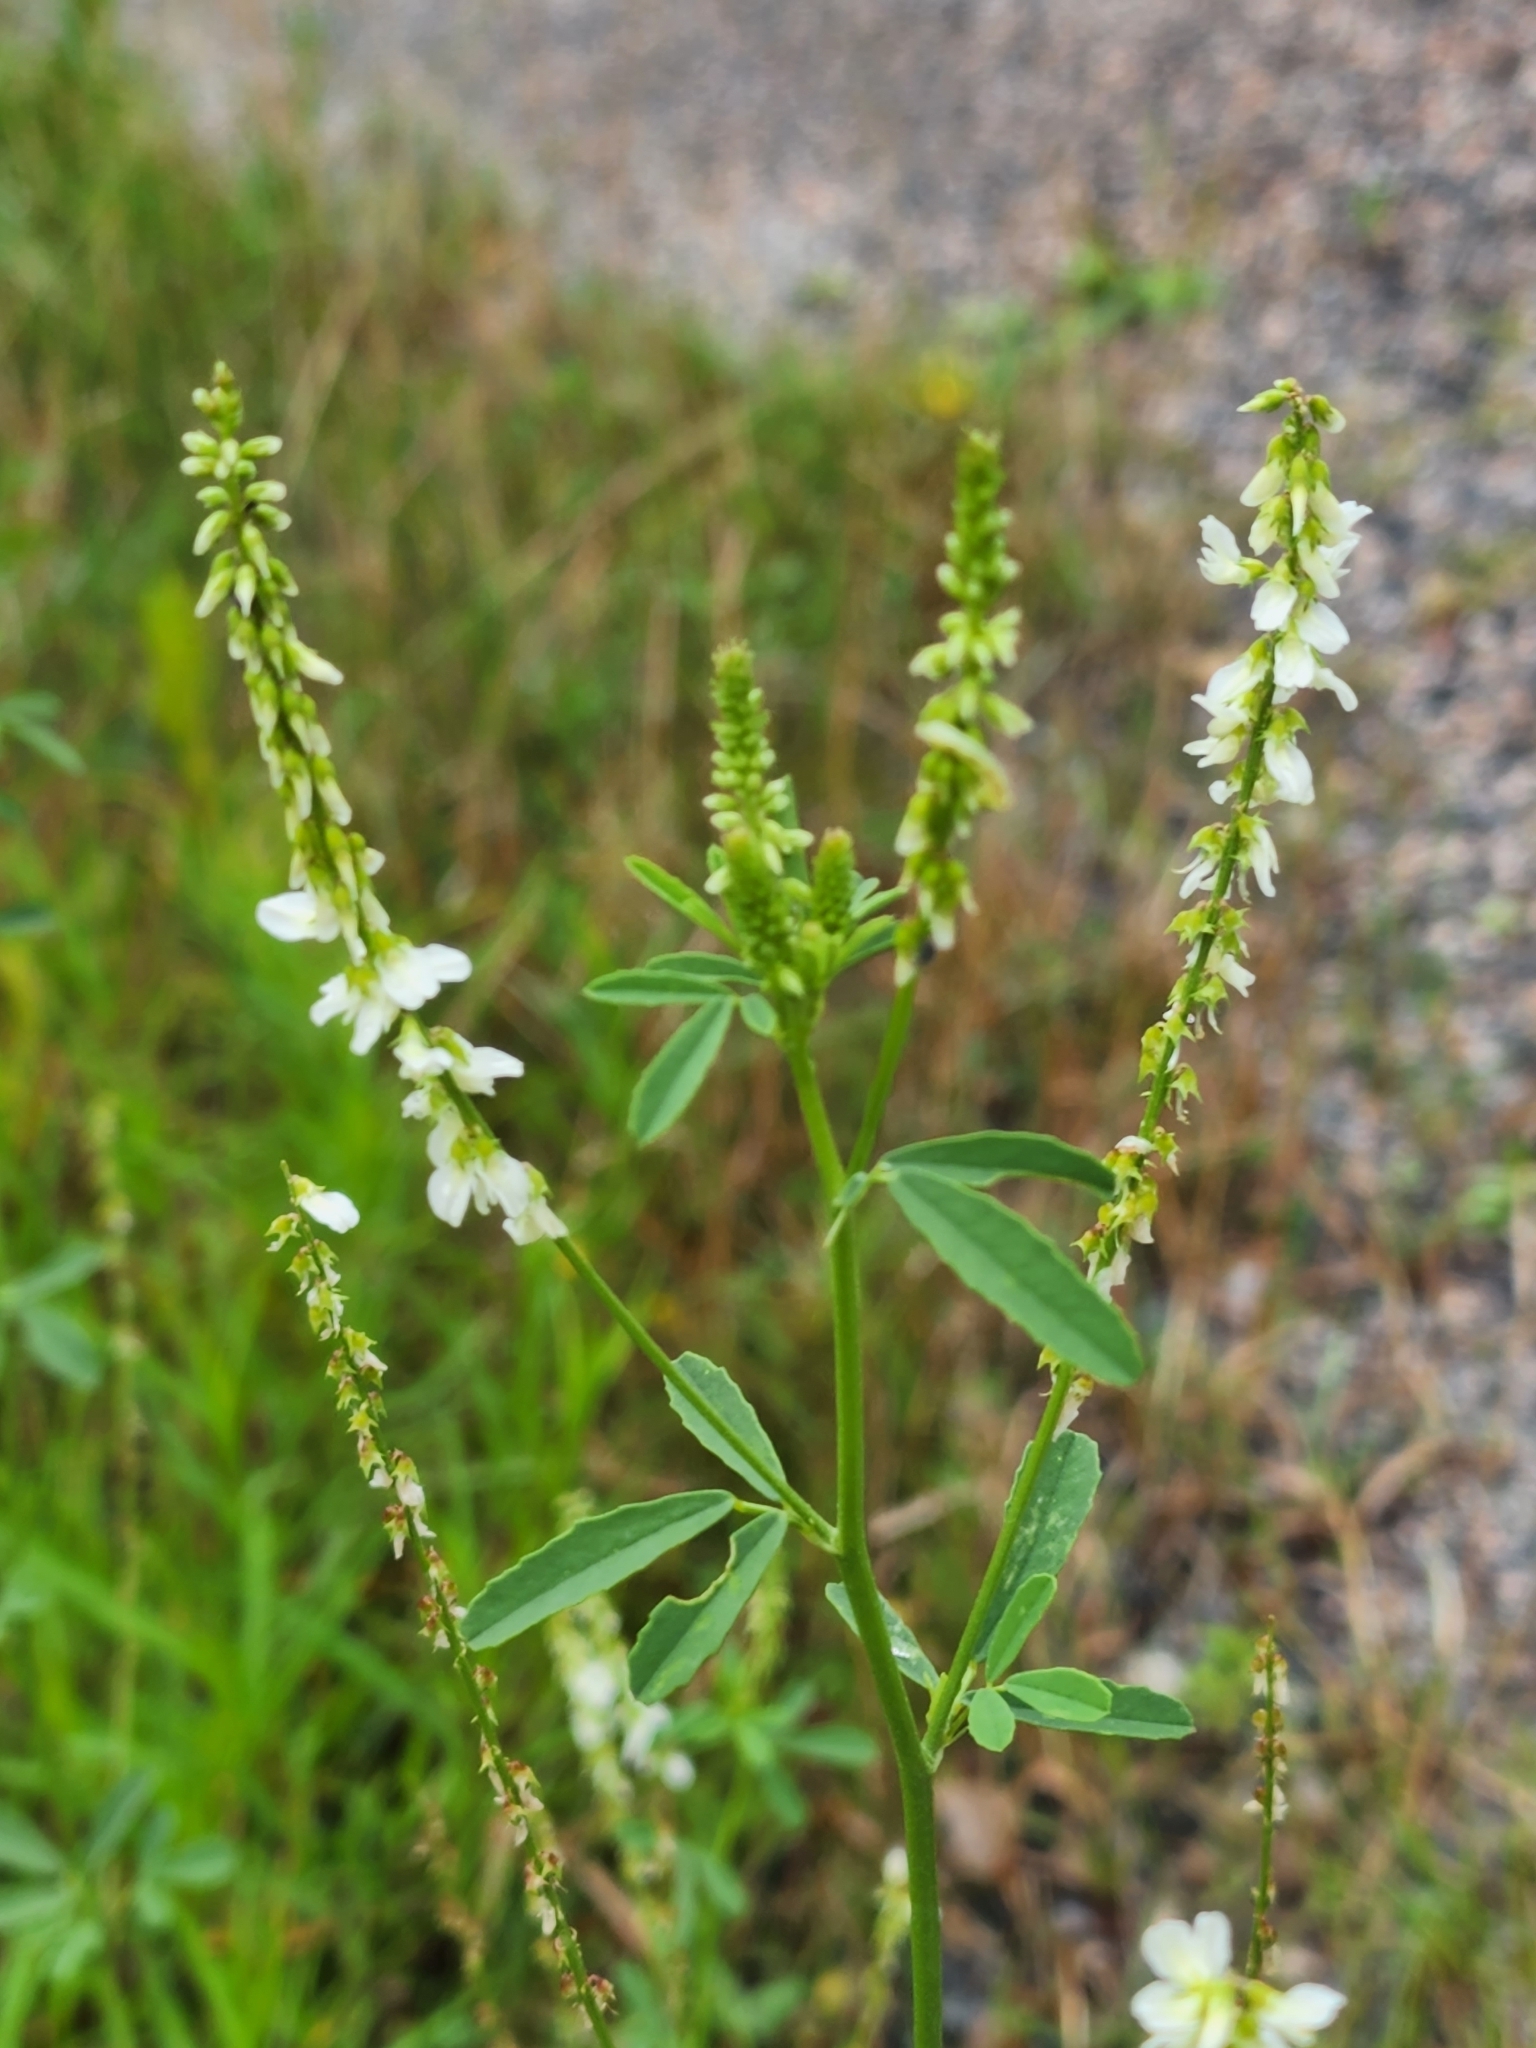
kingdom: Plantae
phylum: Tracheophyta
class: Magnoliopsida
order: Fabales
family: Fabaceae
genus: Melilotus
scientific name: Melilotus albus
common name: White melilot
